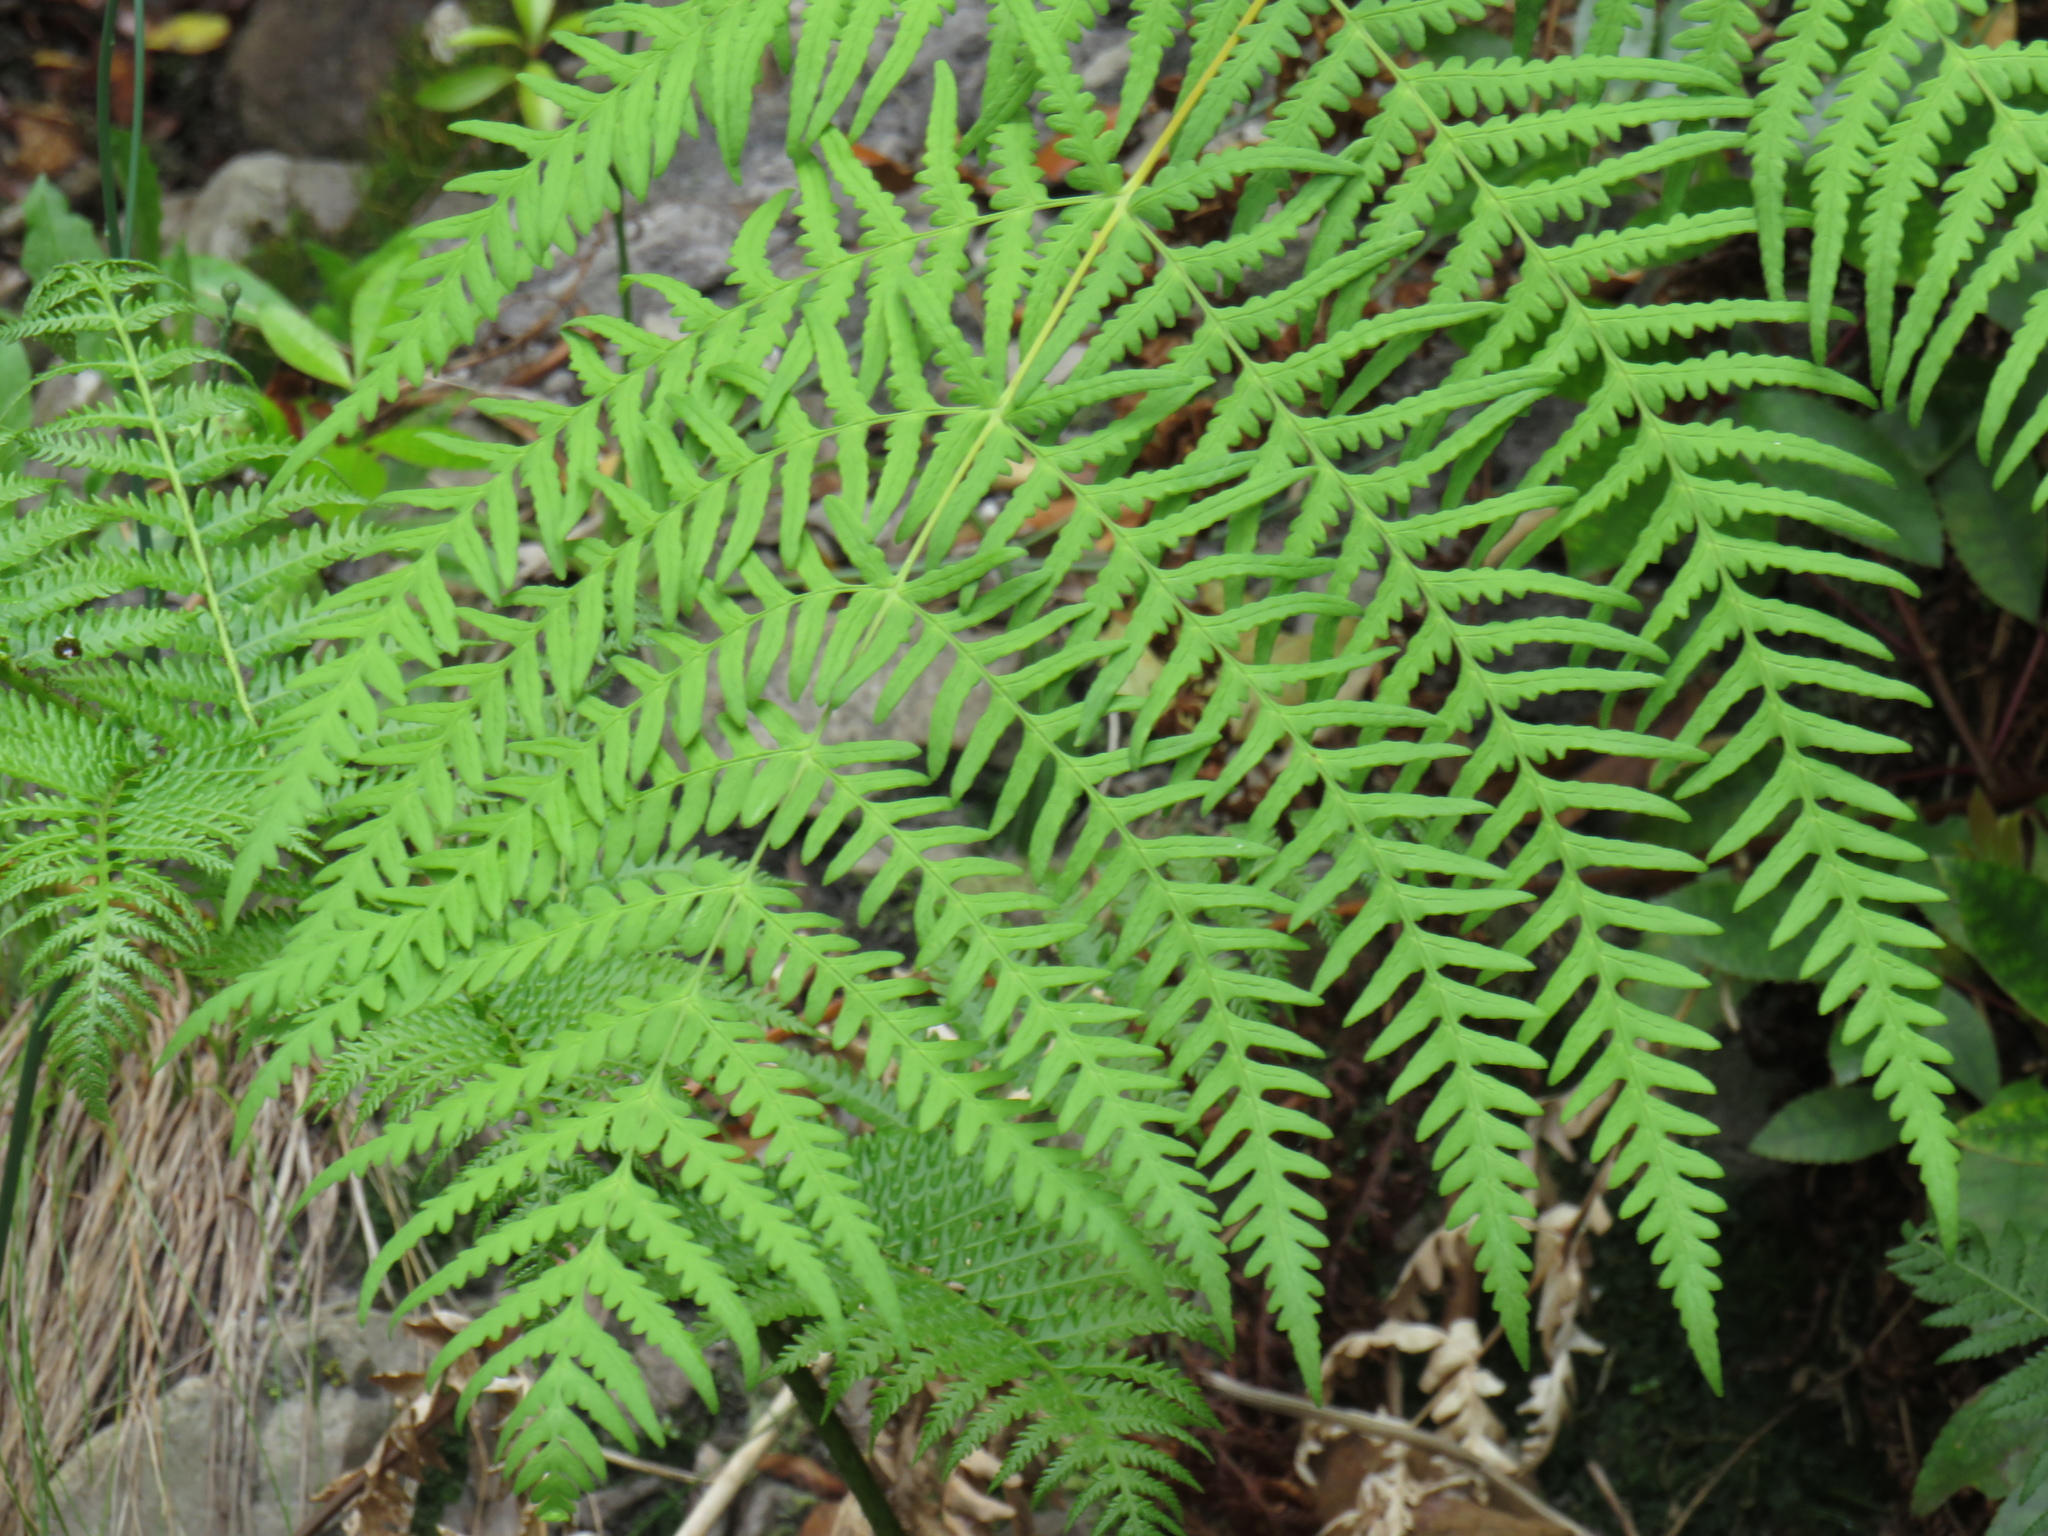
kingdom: Plantae
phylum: Tracheophyta
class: Polypodiopsida
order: Polypodiales
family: Dennstaedtiaceae
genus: Histiopteris
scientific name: Histiopteris incisa
